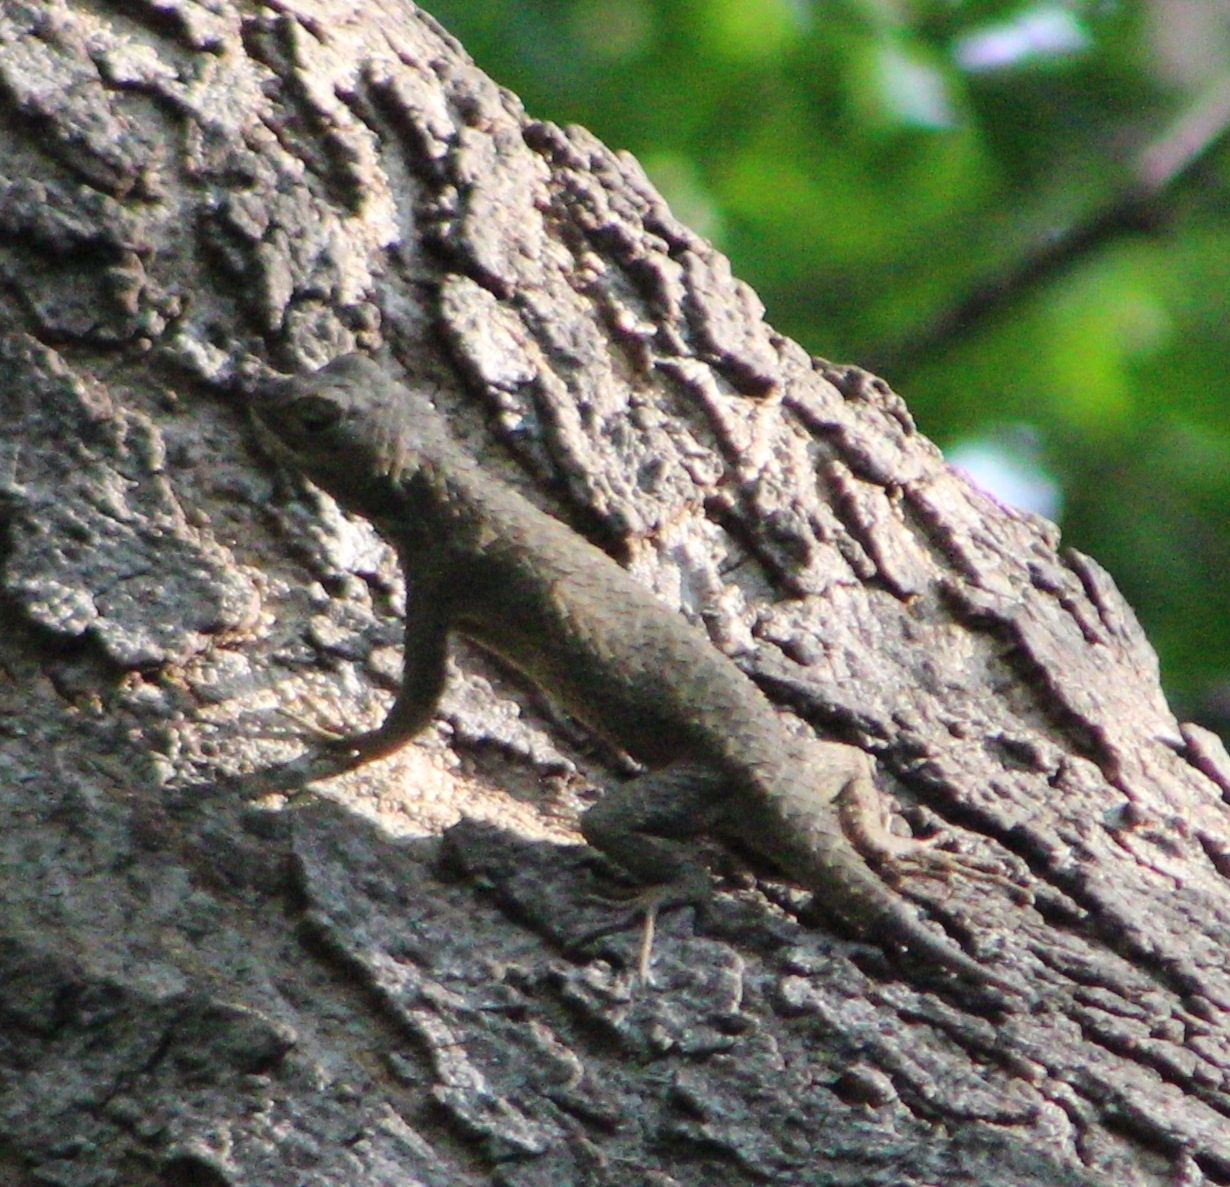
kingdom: Animalia
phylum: Chordata
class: Squamata
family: Phrynosomatidae
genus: Sceloporus
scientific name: Sceloporus melanorhinus
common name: Black-nosed lizard
